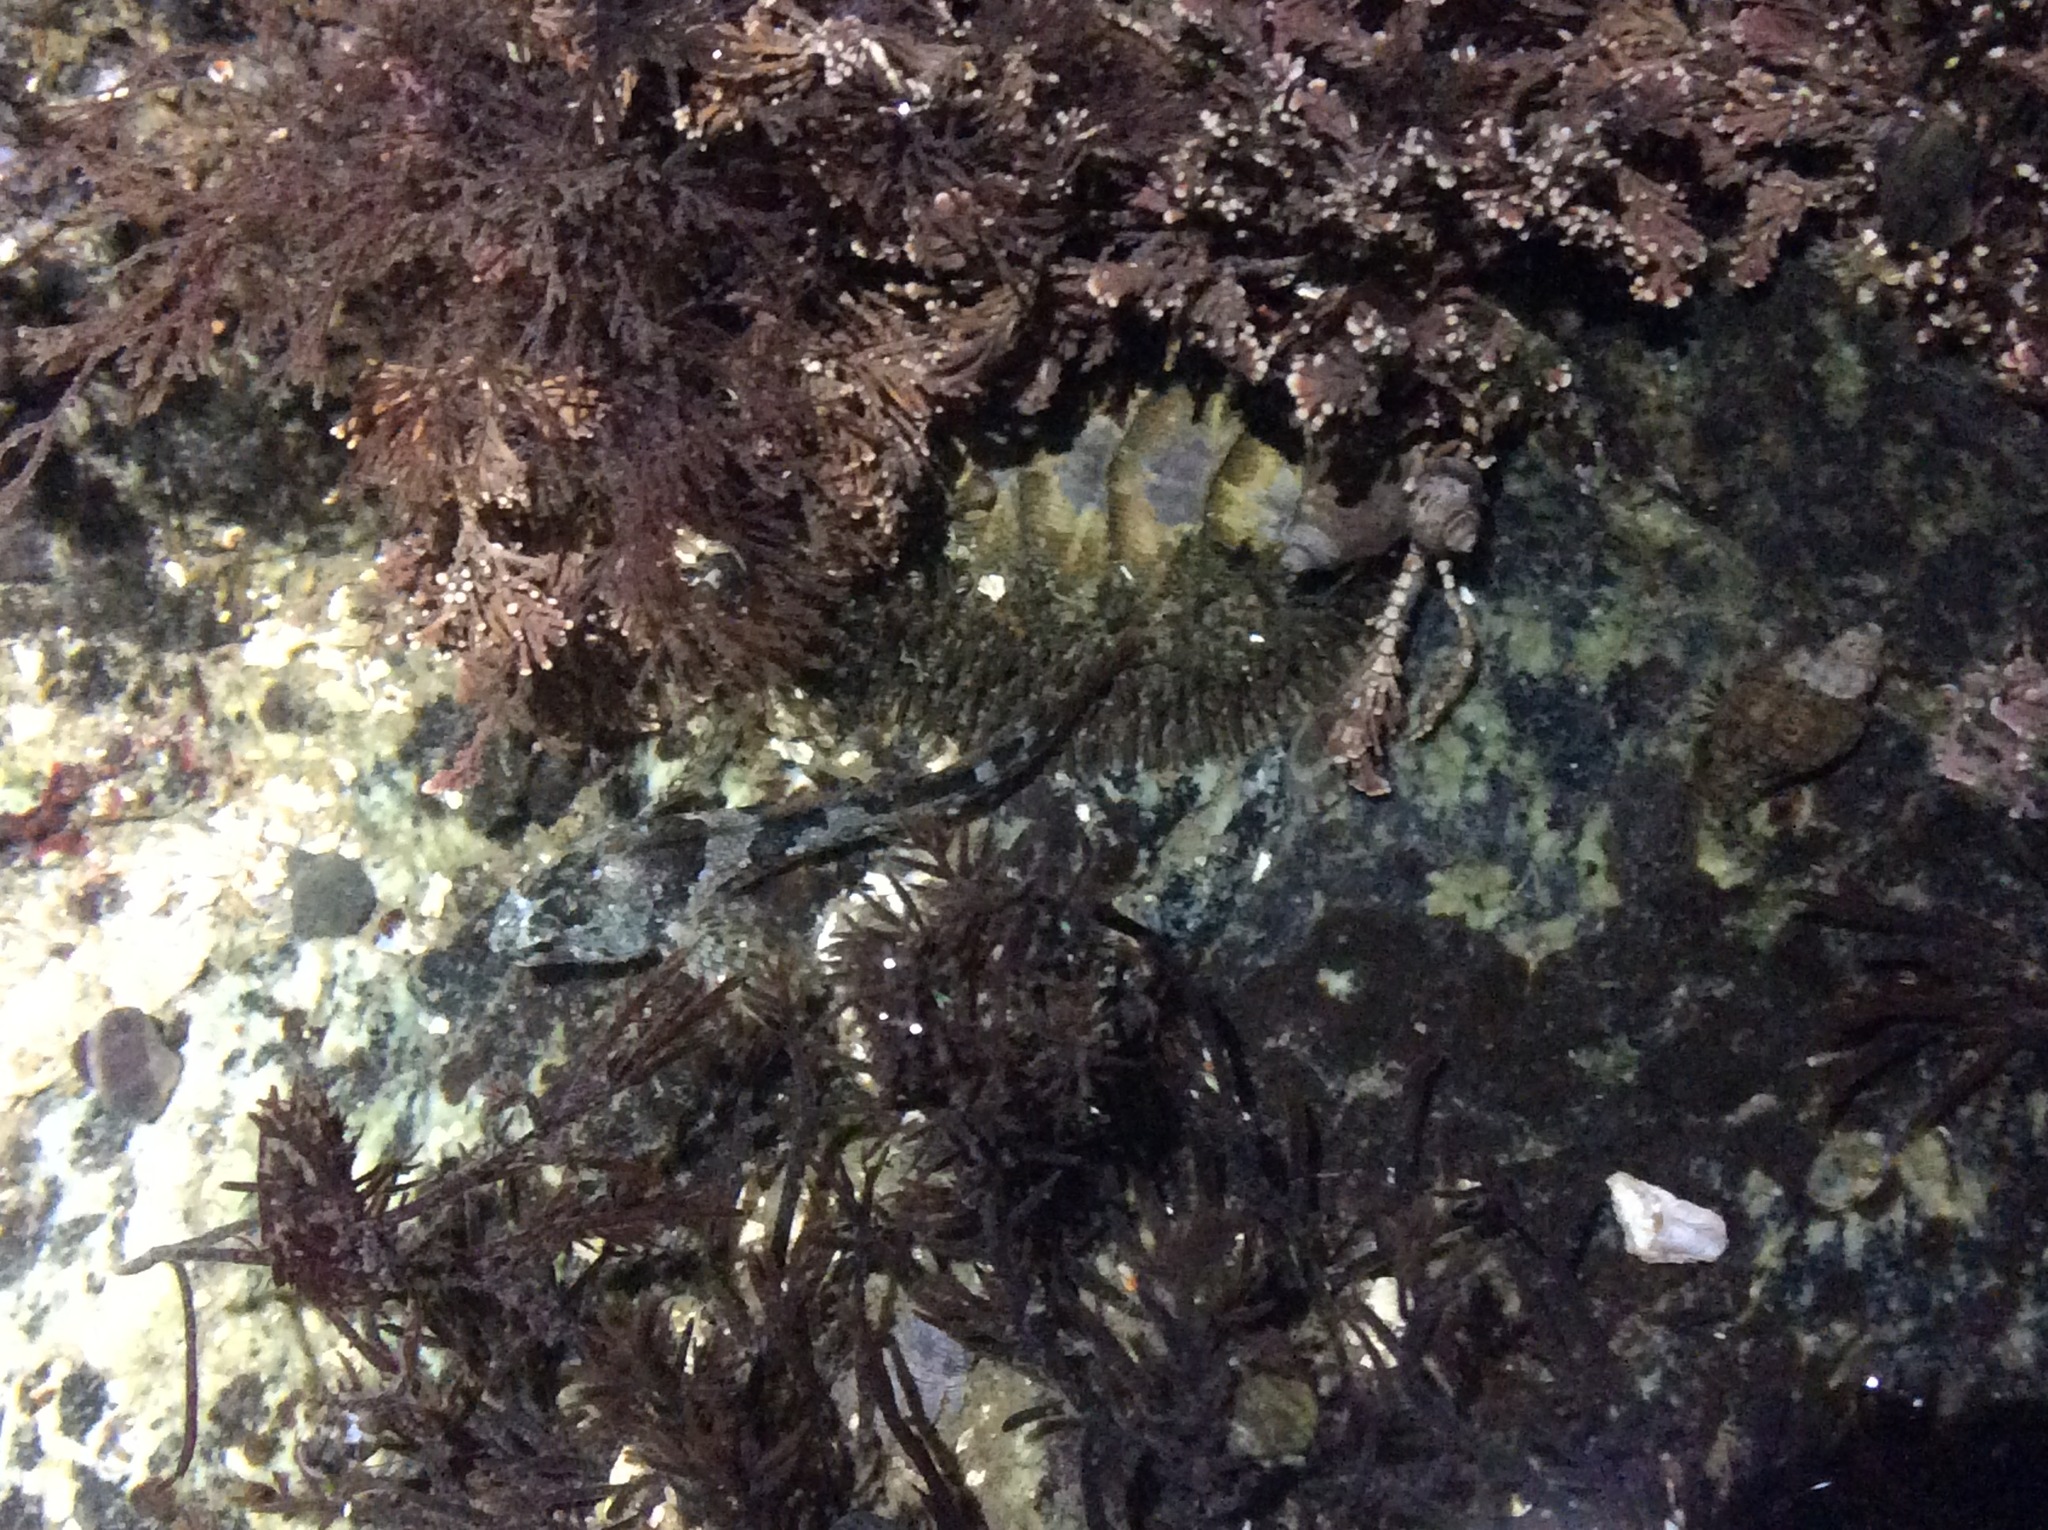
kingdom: Animalia
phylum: Chordata
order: Scorpaeniformes
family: Cottidae
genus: Oligocottus
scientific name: Oligocottus maculosus
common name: Tidepool sculpin
